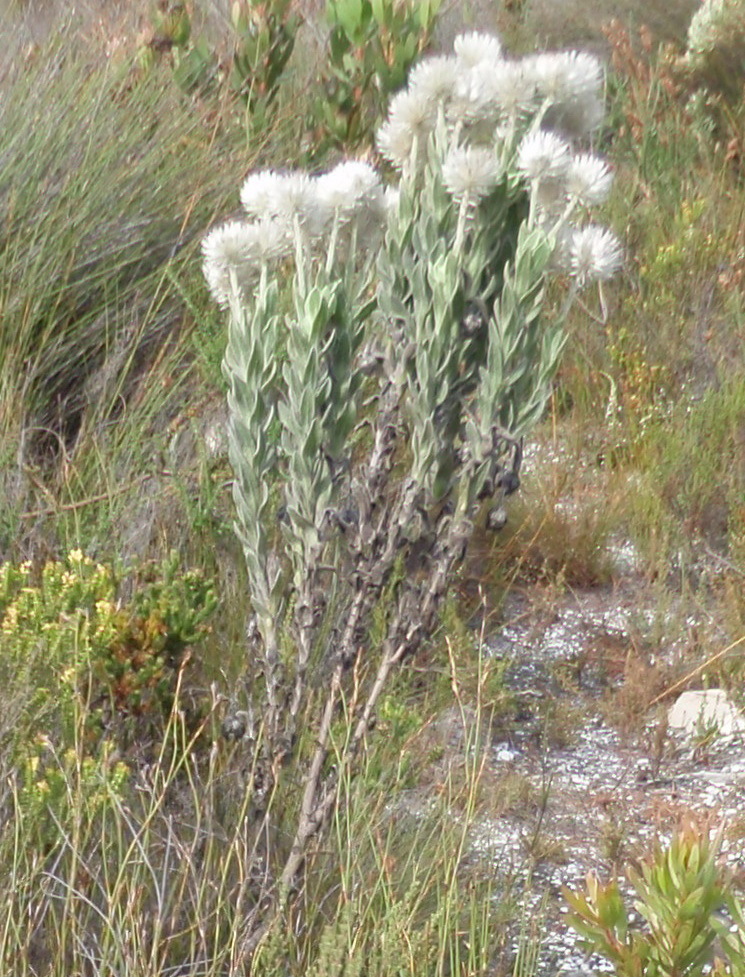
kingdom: Plantae
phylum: Tracheophyta
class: Magnoliopsida
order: Asterales
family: Asteraceae
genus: Syncarpha
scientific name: Syncarpha vestita
